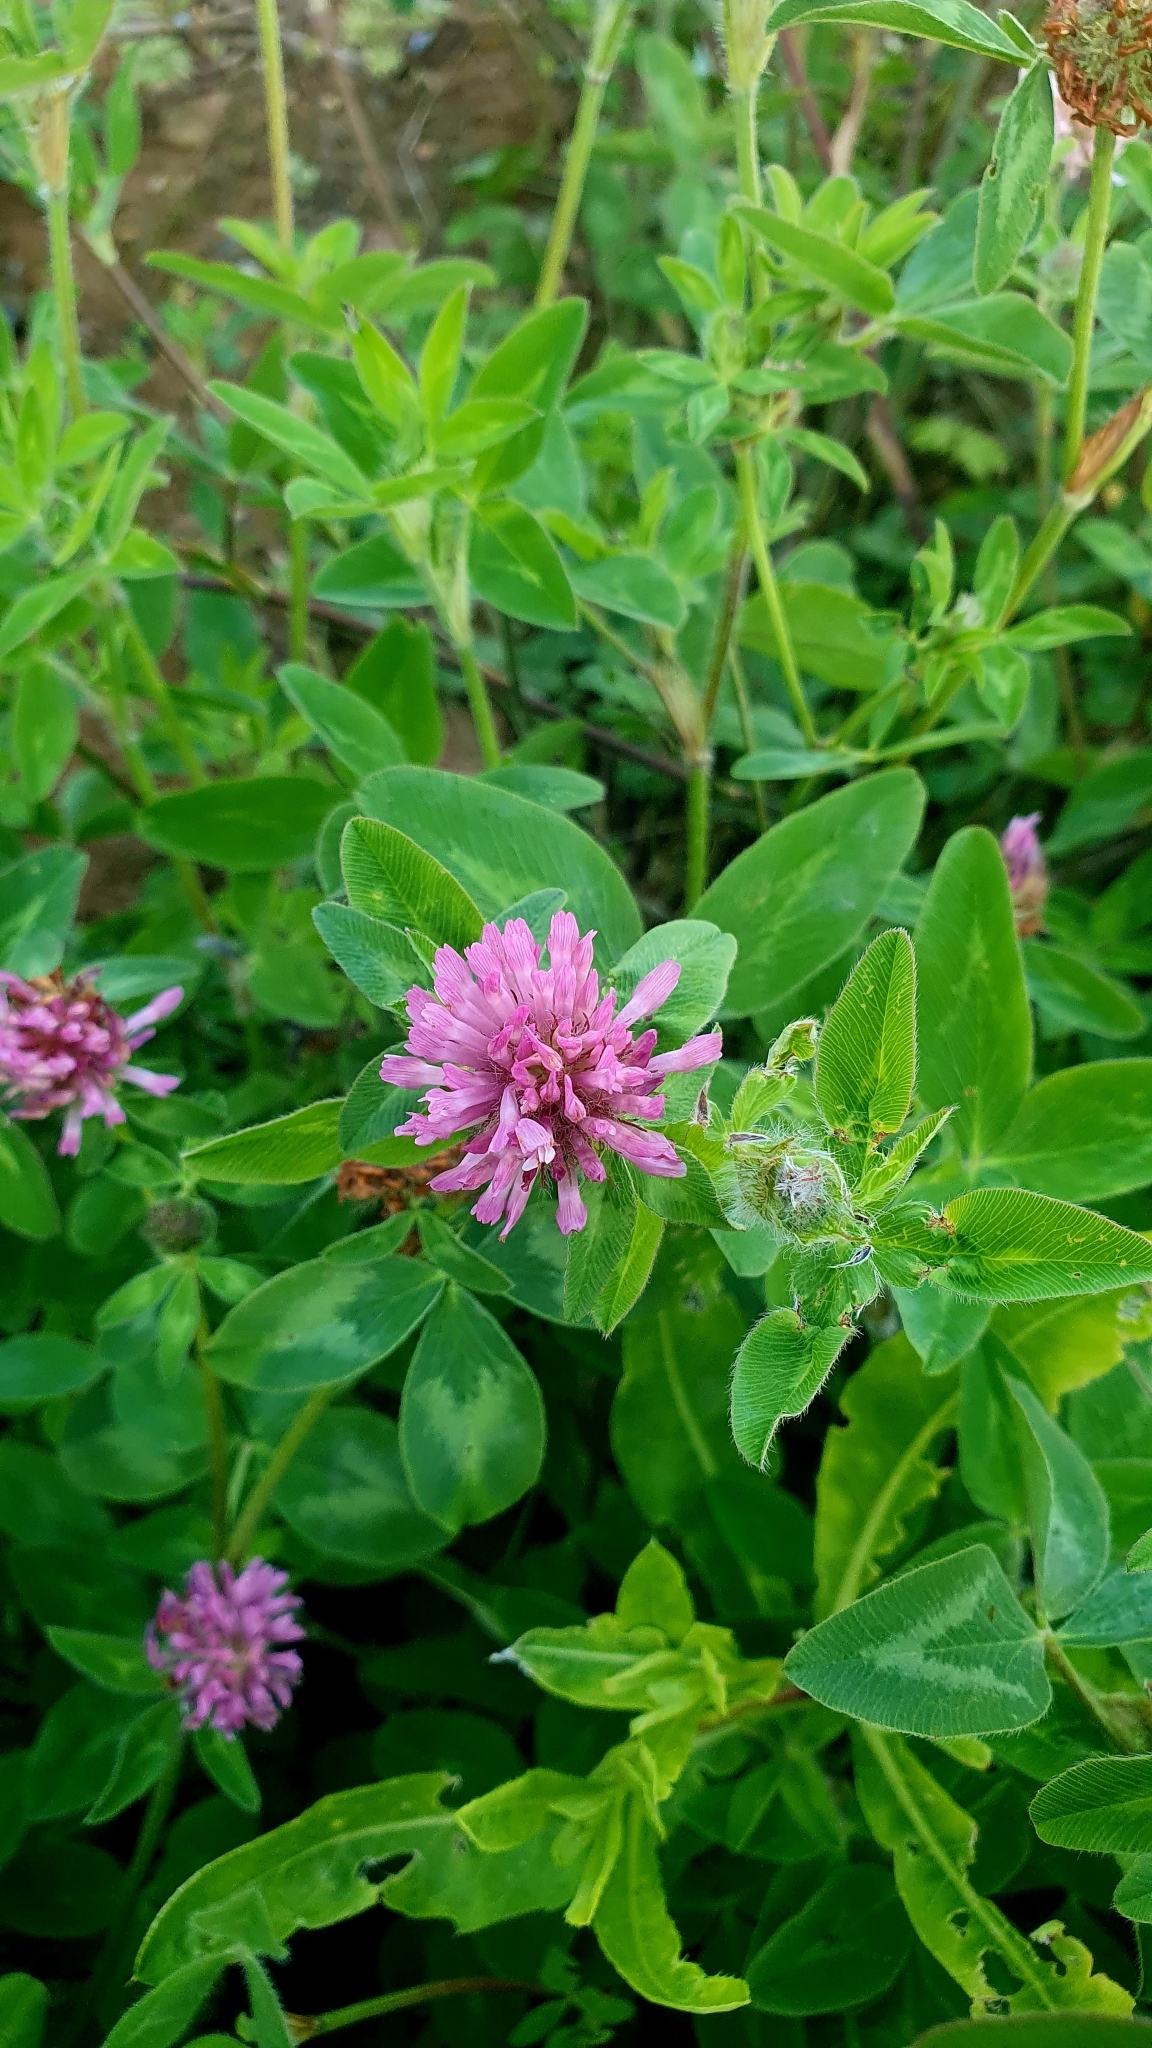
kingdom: Plantae
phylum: Tracheophyta
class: Magnoliopsida
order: Fabales
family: Fabaceae
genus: Trifolium
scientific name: Trifolium pratense
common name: Red clover
